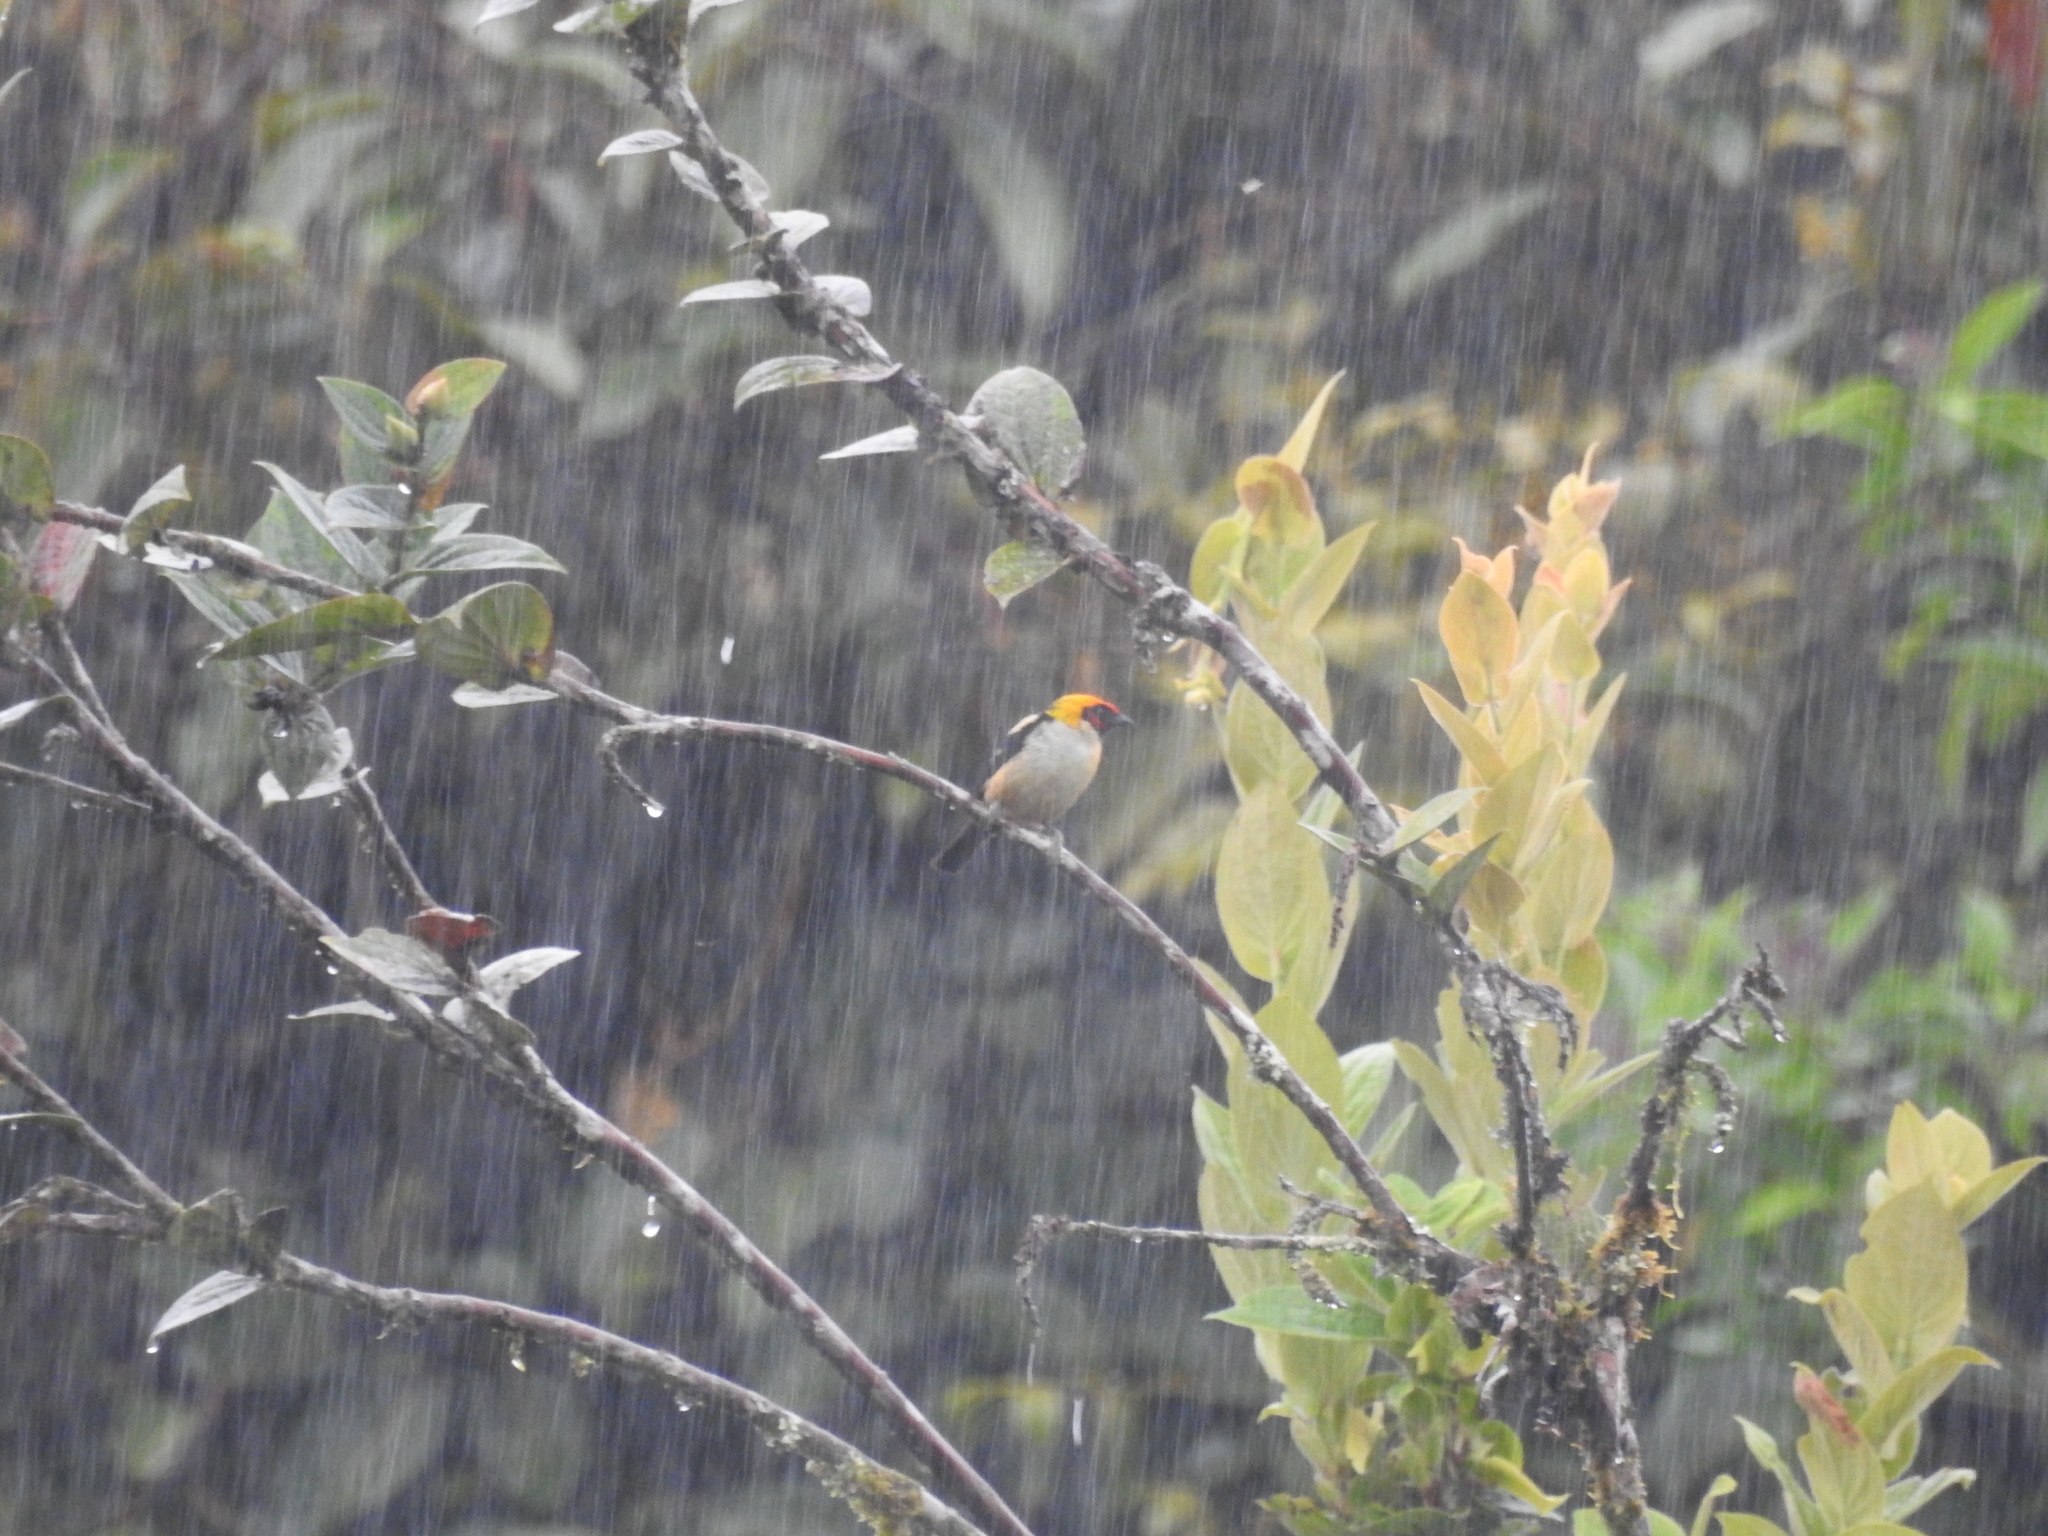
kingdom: Animalia
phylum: Chordata
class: Aves
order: Passeriformes
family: Thraupidae
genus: Tangara
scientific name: Tangara parzudakii
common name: Flame-faced tanager
